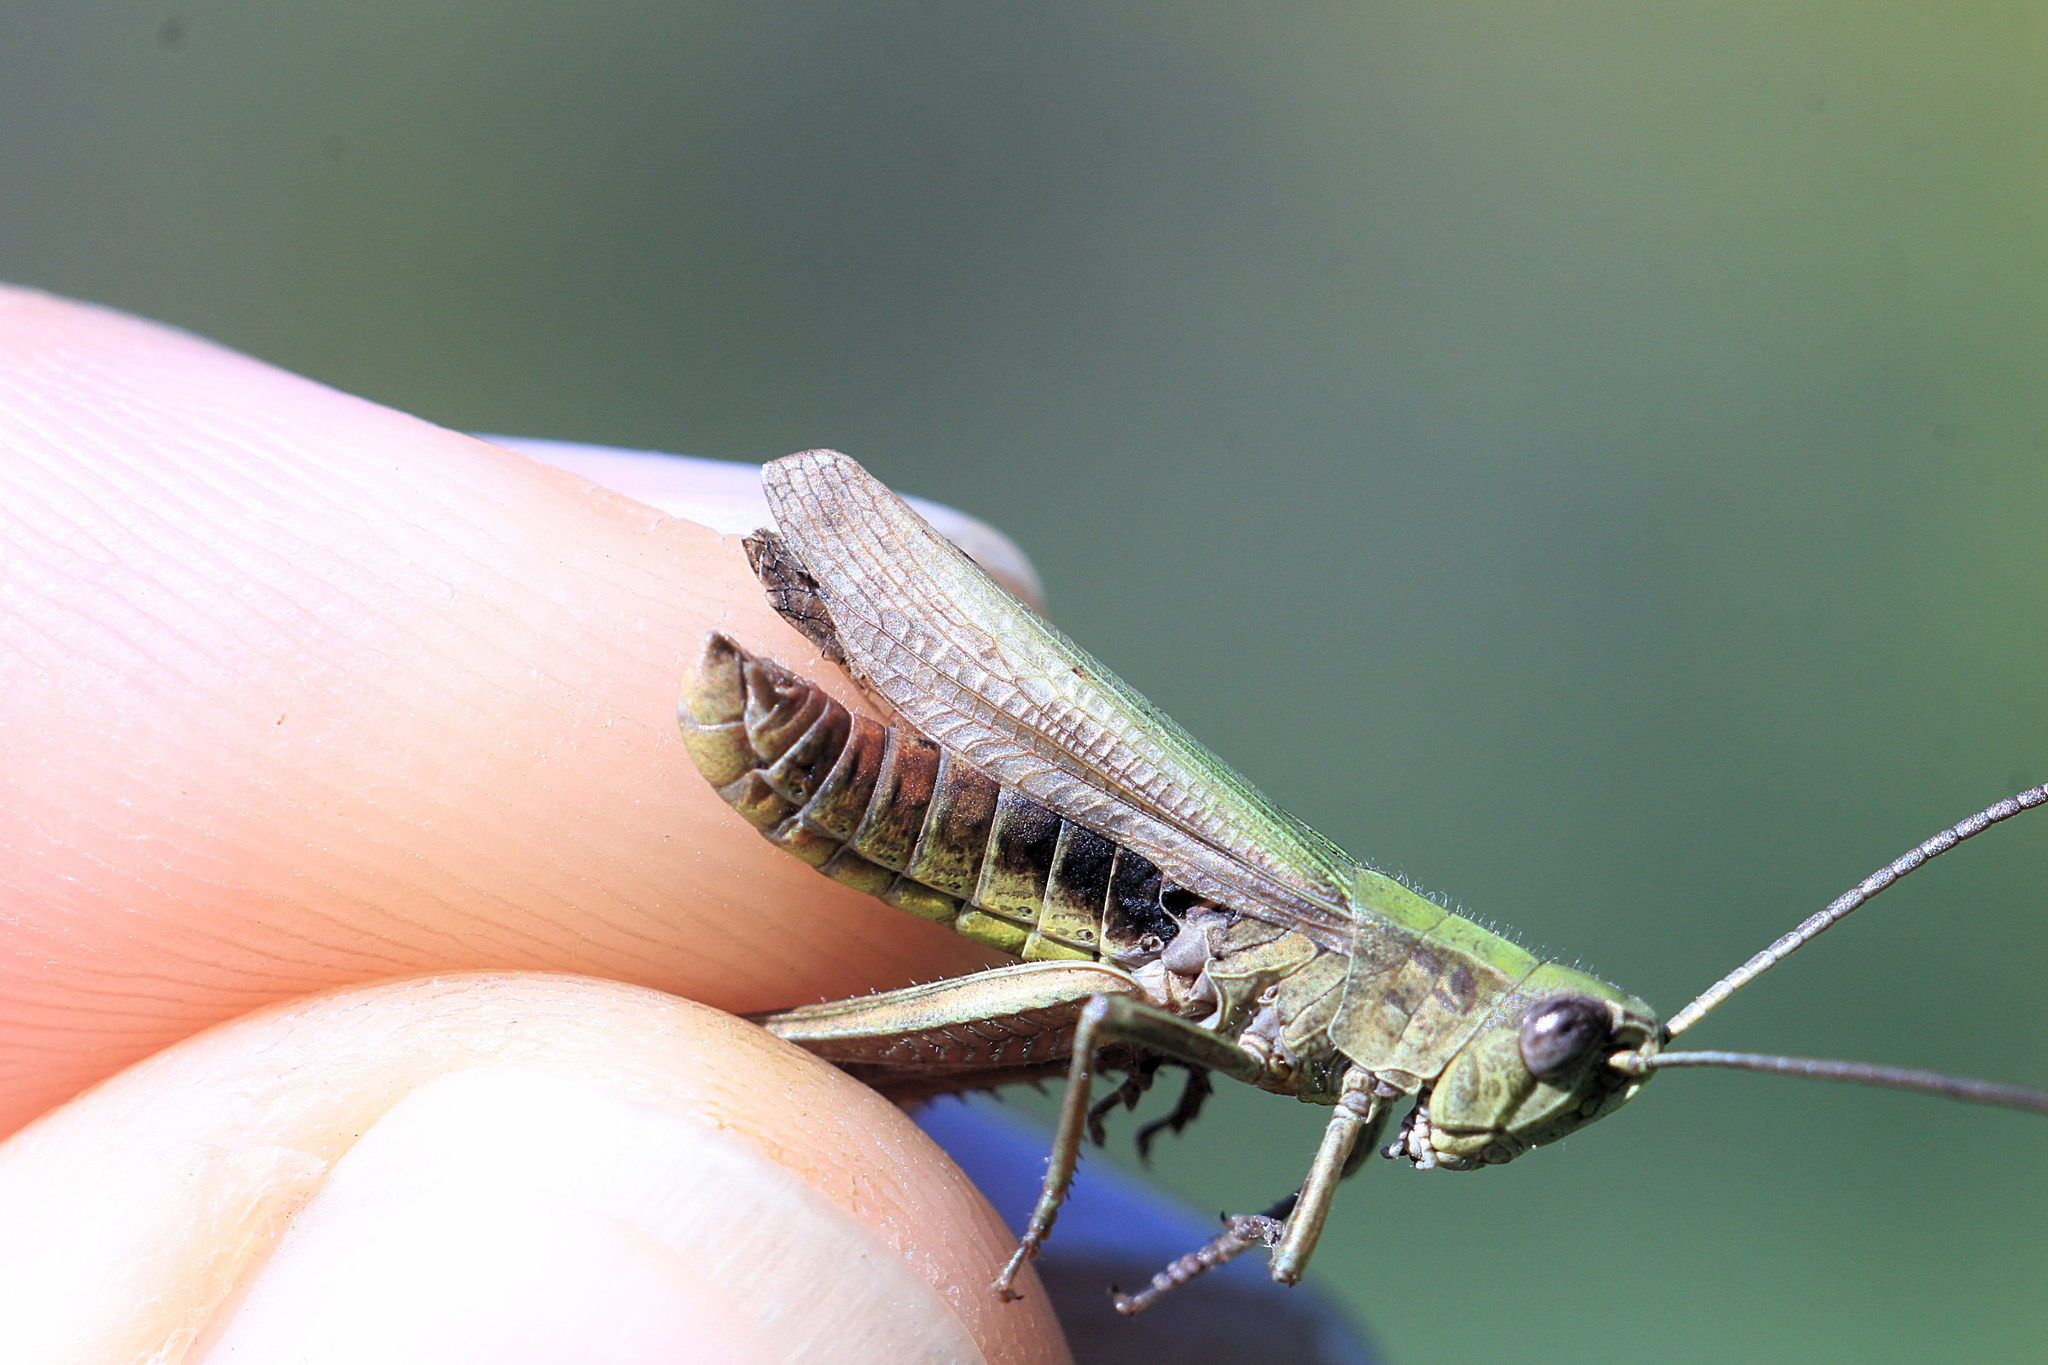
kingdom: Animalia
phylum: Arthropoda
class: Insecta
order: Orthoptera
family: Acrididae
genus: Chorthippus
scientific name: Chorthippus dorsatus
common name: Steppe grasshopper
